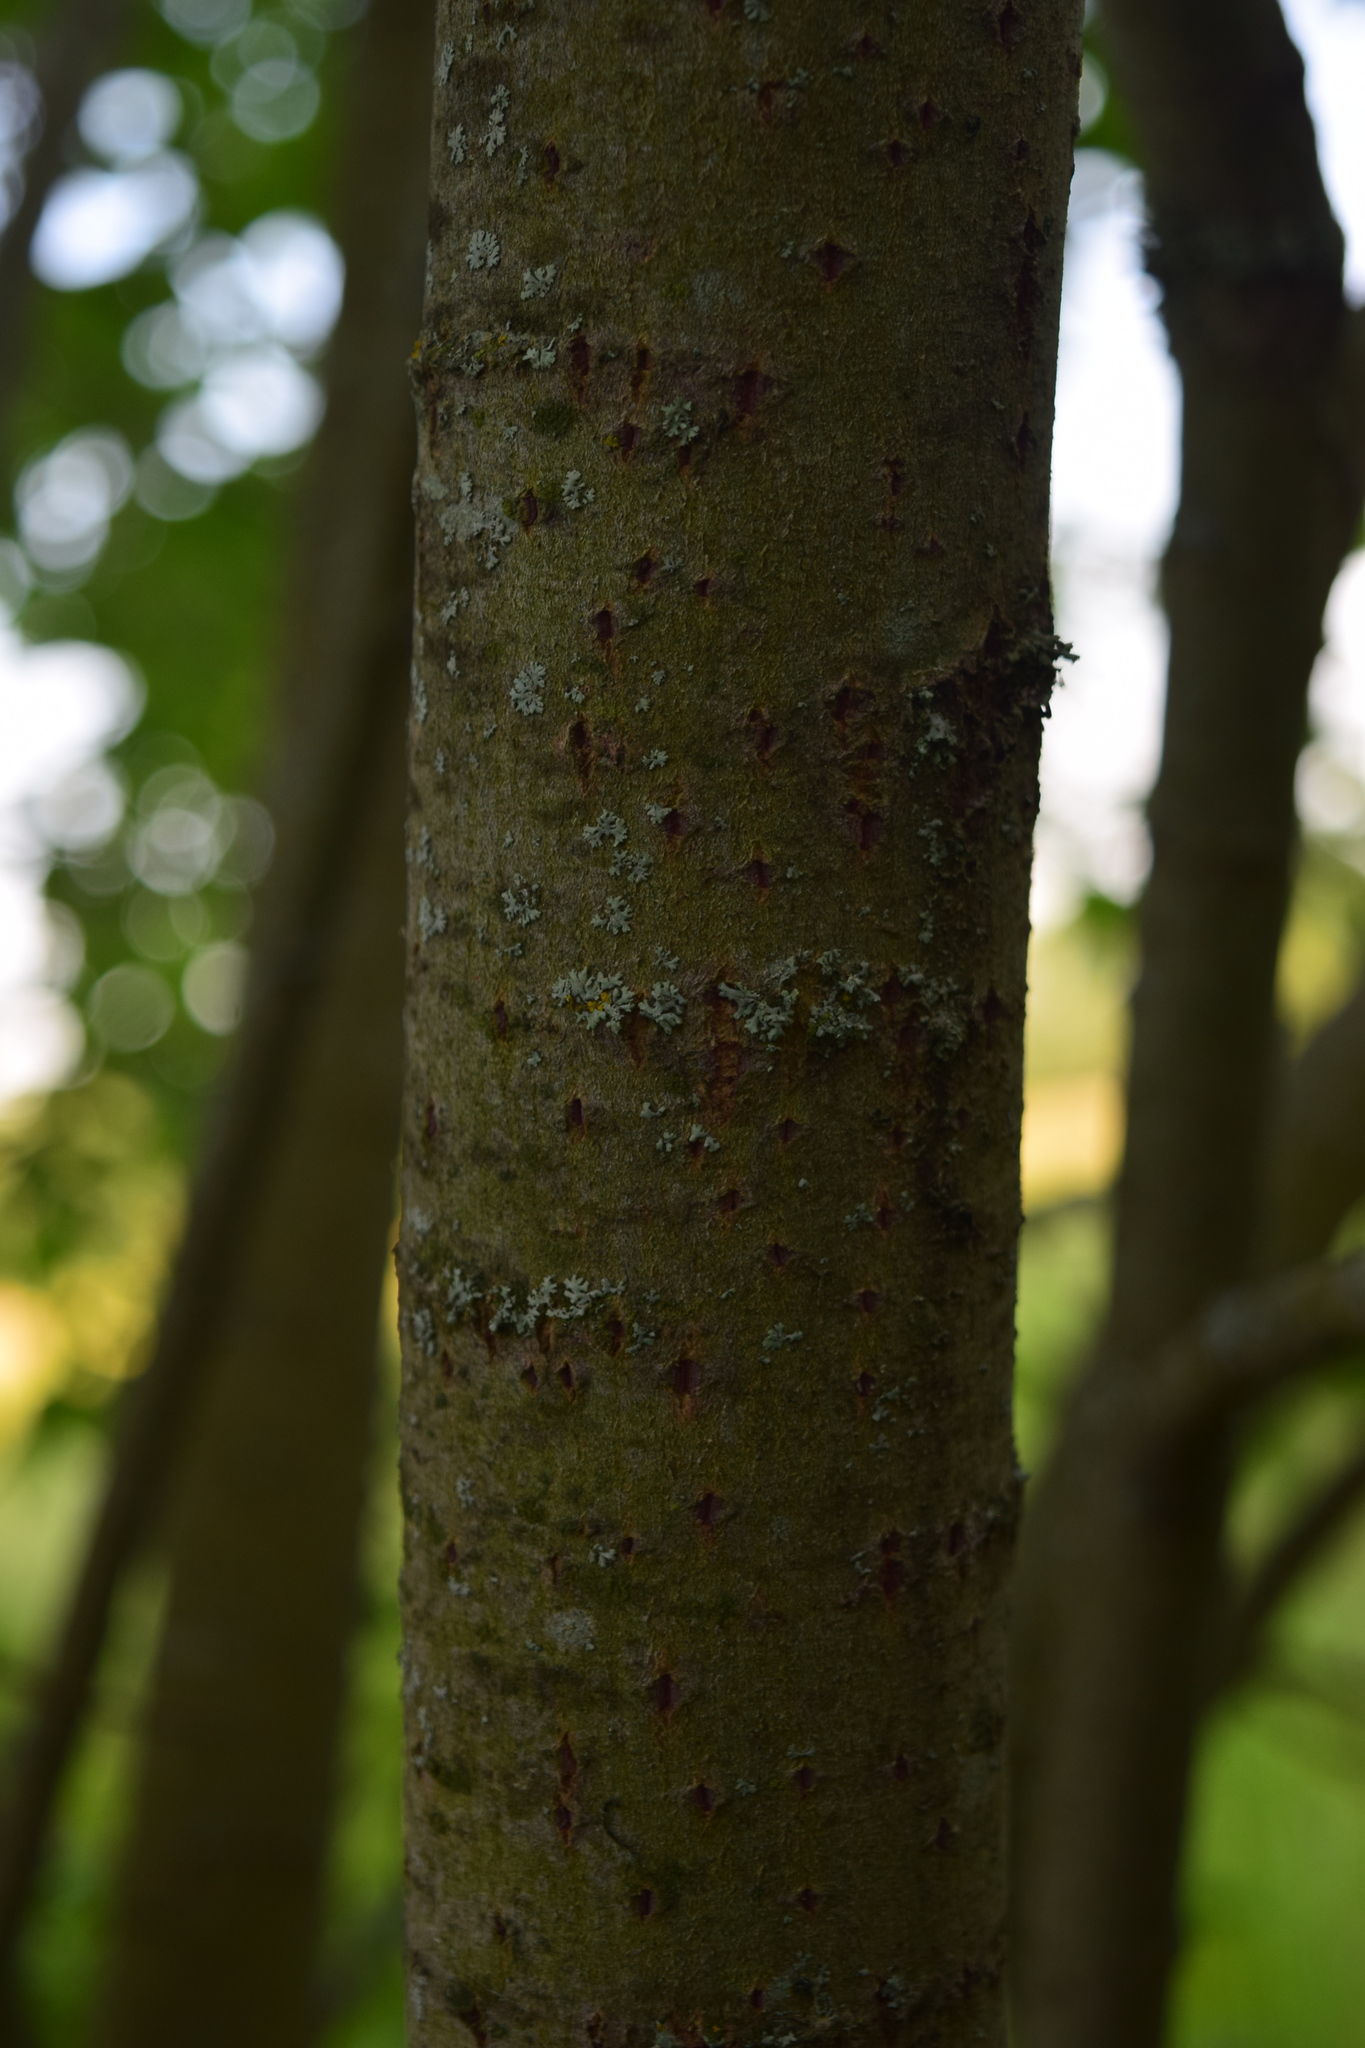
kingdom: Plantae
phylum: Tracheophyta
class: Magnoliopsida
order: Malpighiales
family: Salicaceae
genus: Salix
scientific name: Salix caprea
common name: Goat willow
